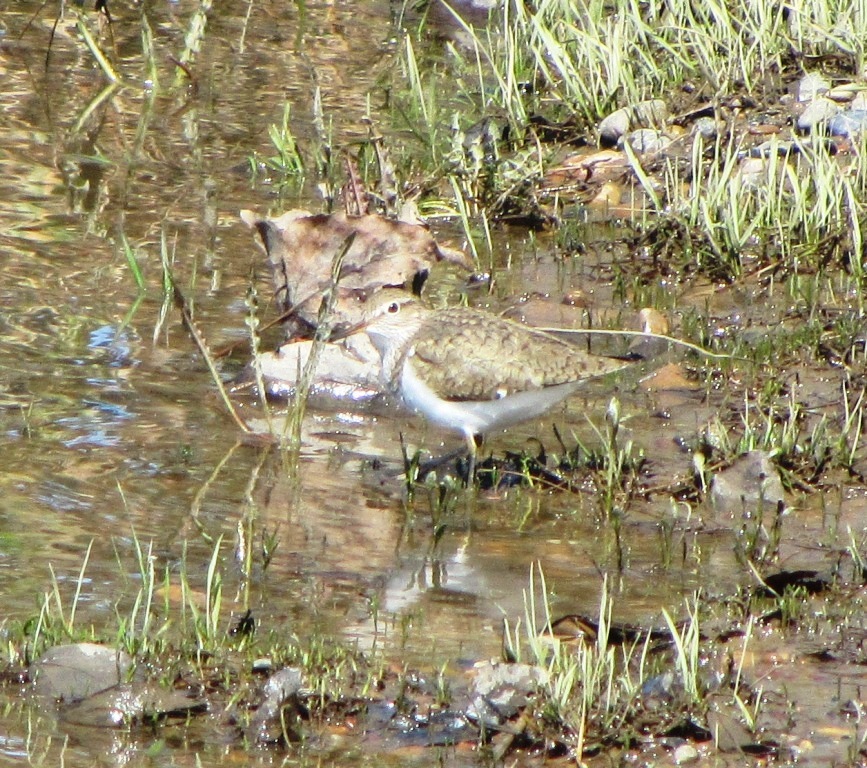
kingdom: Animalia
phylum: Chordata
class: Aves
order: Charadriiformes
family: Scolopacidae
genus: Actitis
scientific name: Actitis hypoleucos
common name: Common sandpiper
